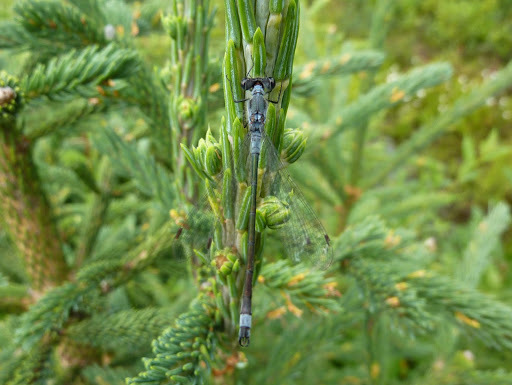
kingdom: Animalia
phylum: Arthropoda
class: Insecta
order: Odonata
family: Lestidae
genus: Lestes
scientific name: Lestes disjunctus
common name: Northern spreadwing
